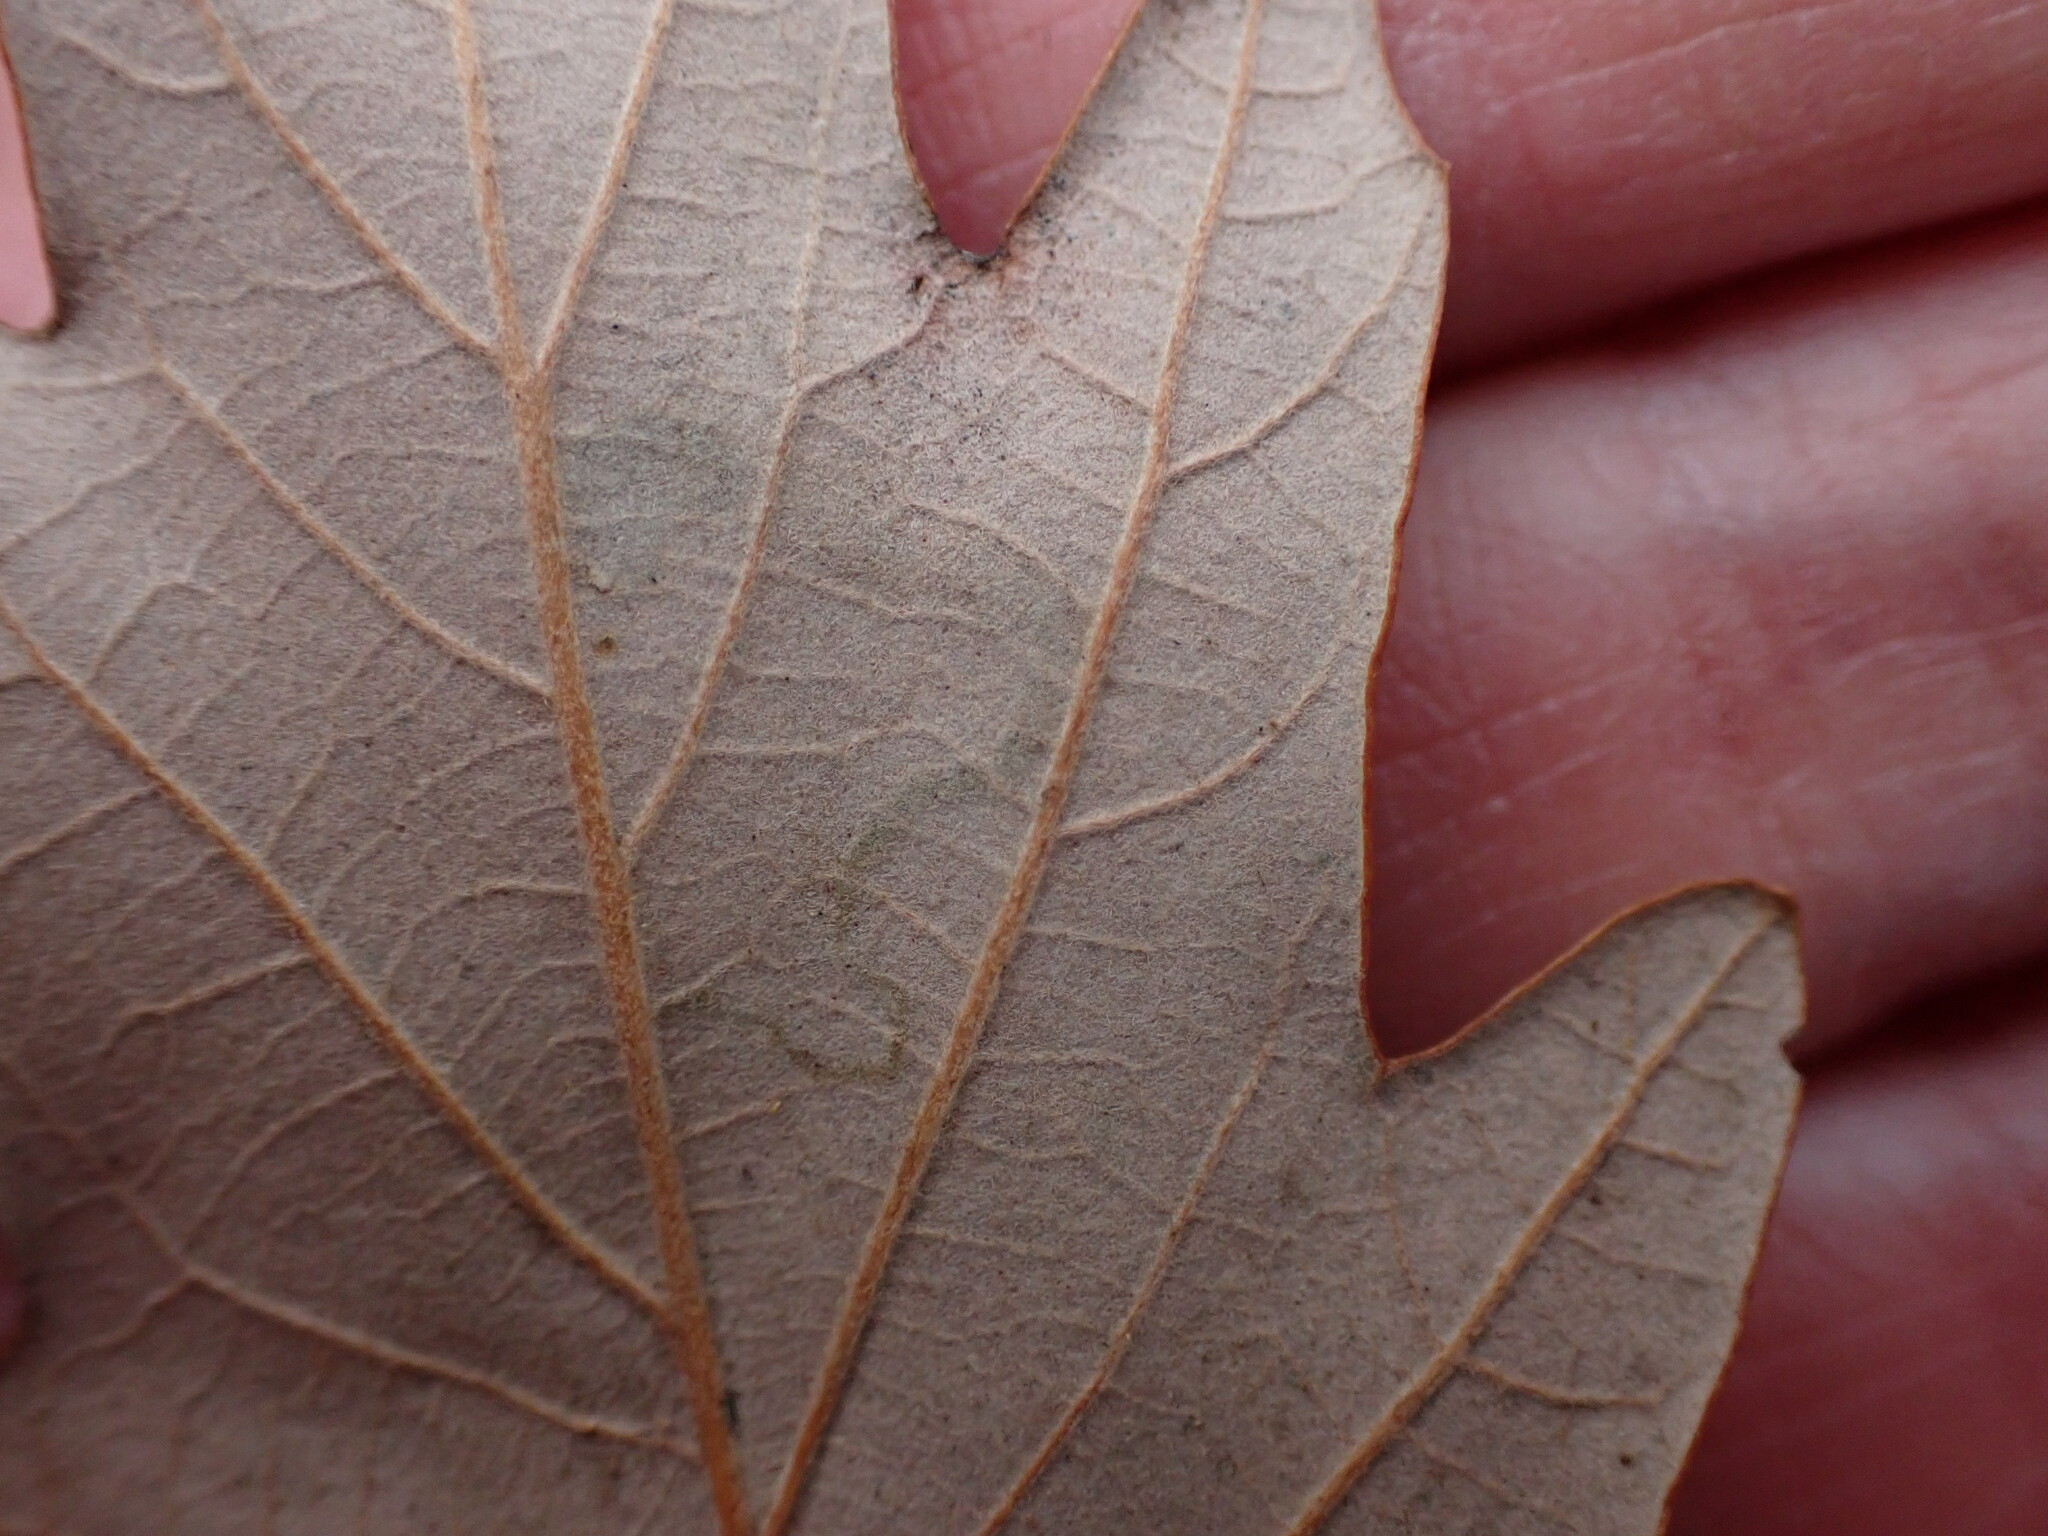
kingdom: Animalia
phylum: Arthropoda
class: Insecta
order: Lepidoptera
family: Nepticulidae
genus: Stigmella
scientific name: Stigmella
